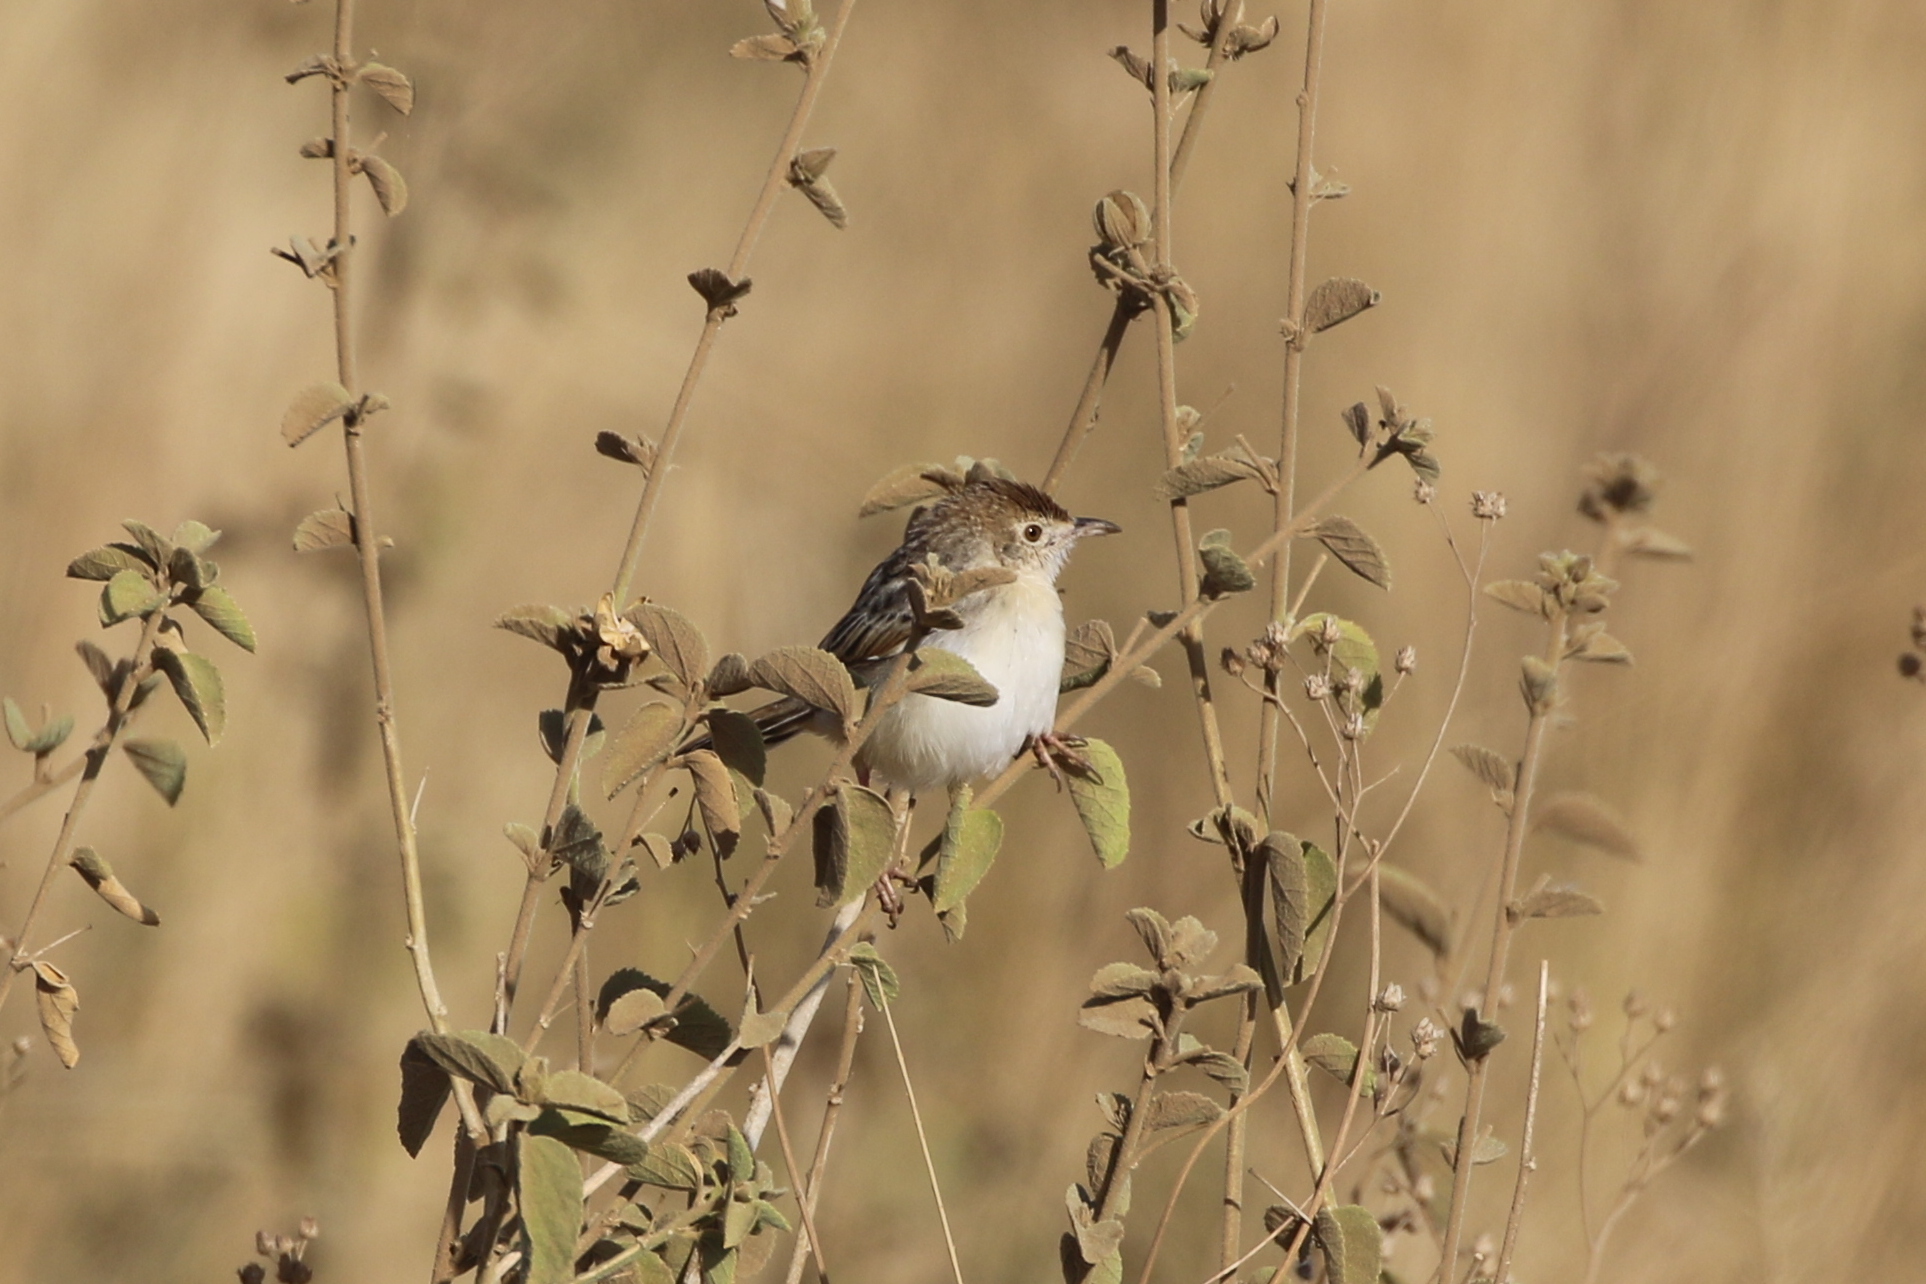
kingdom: Animalia
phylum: Chordata
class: Aves
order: Passeriformes
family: Cisticolidae
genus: Cisticola
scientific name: Cisticola chiniana
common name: Rattling cisticola
